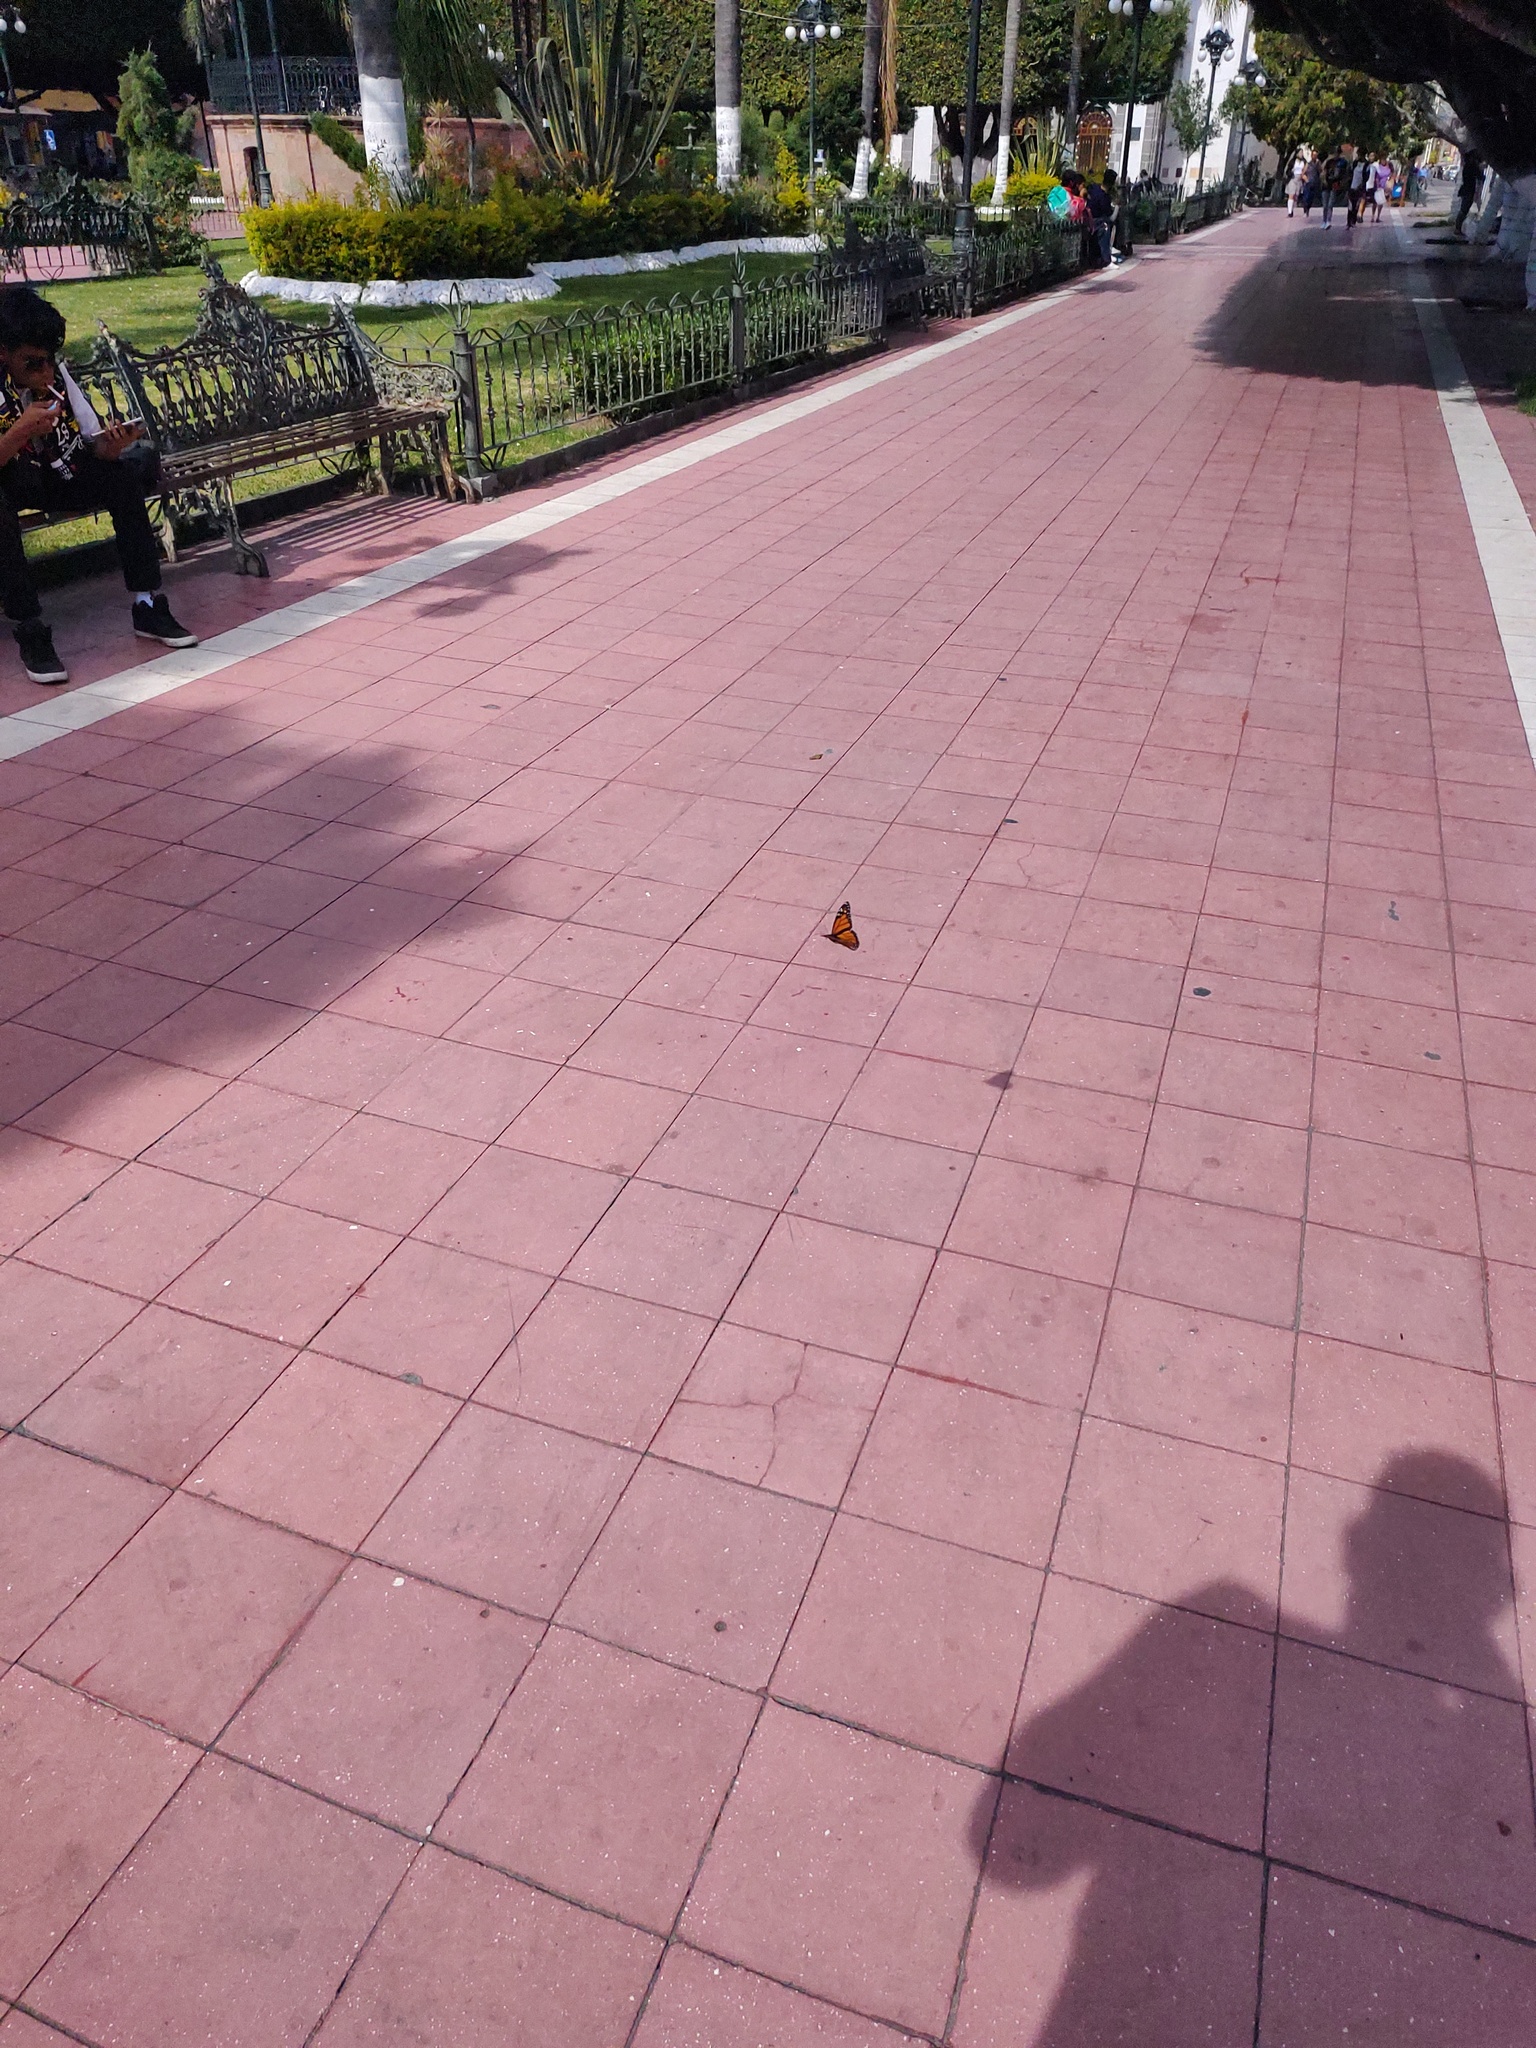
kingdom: Animalia
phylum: Arthropoda
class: Insecta
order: Lepidoptera
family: Nymphalidae
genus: Danaus
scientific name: Danaus plexippus
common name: Monarch
